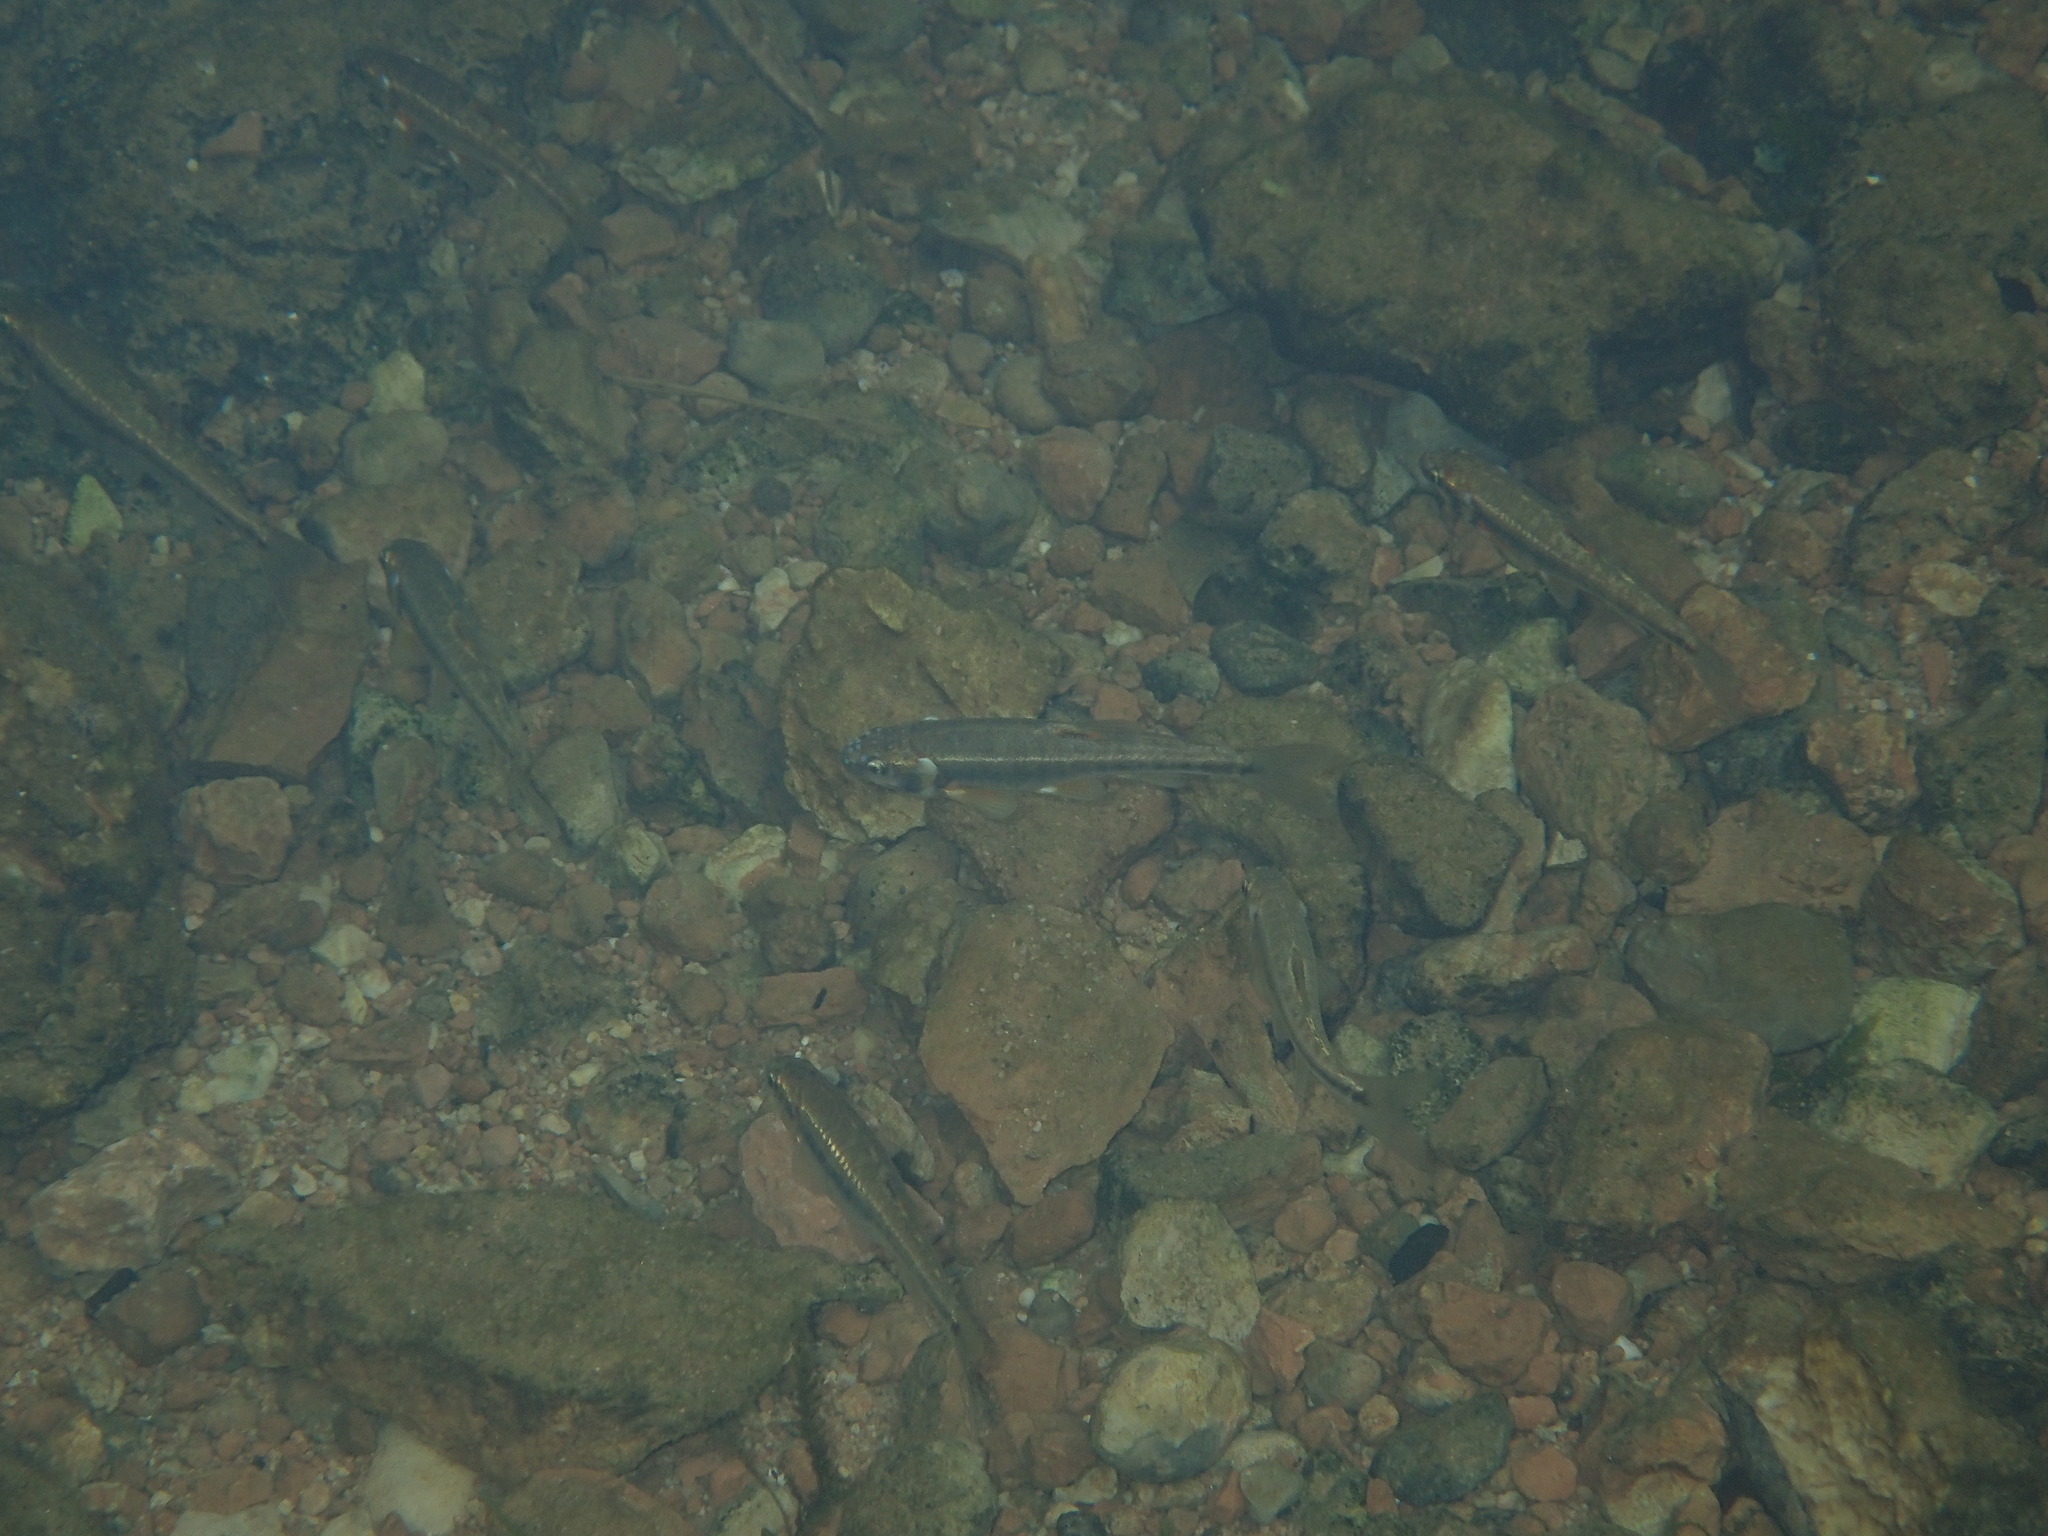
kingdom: Animalia
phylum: Chordata
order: Cypriniformes
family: Cyprinidae
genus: Phoxinus
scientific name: Phoxinus septimaniae
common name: Languedoc minnow
